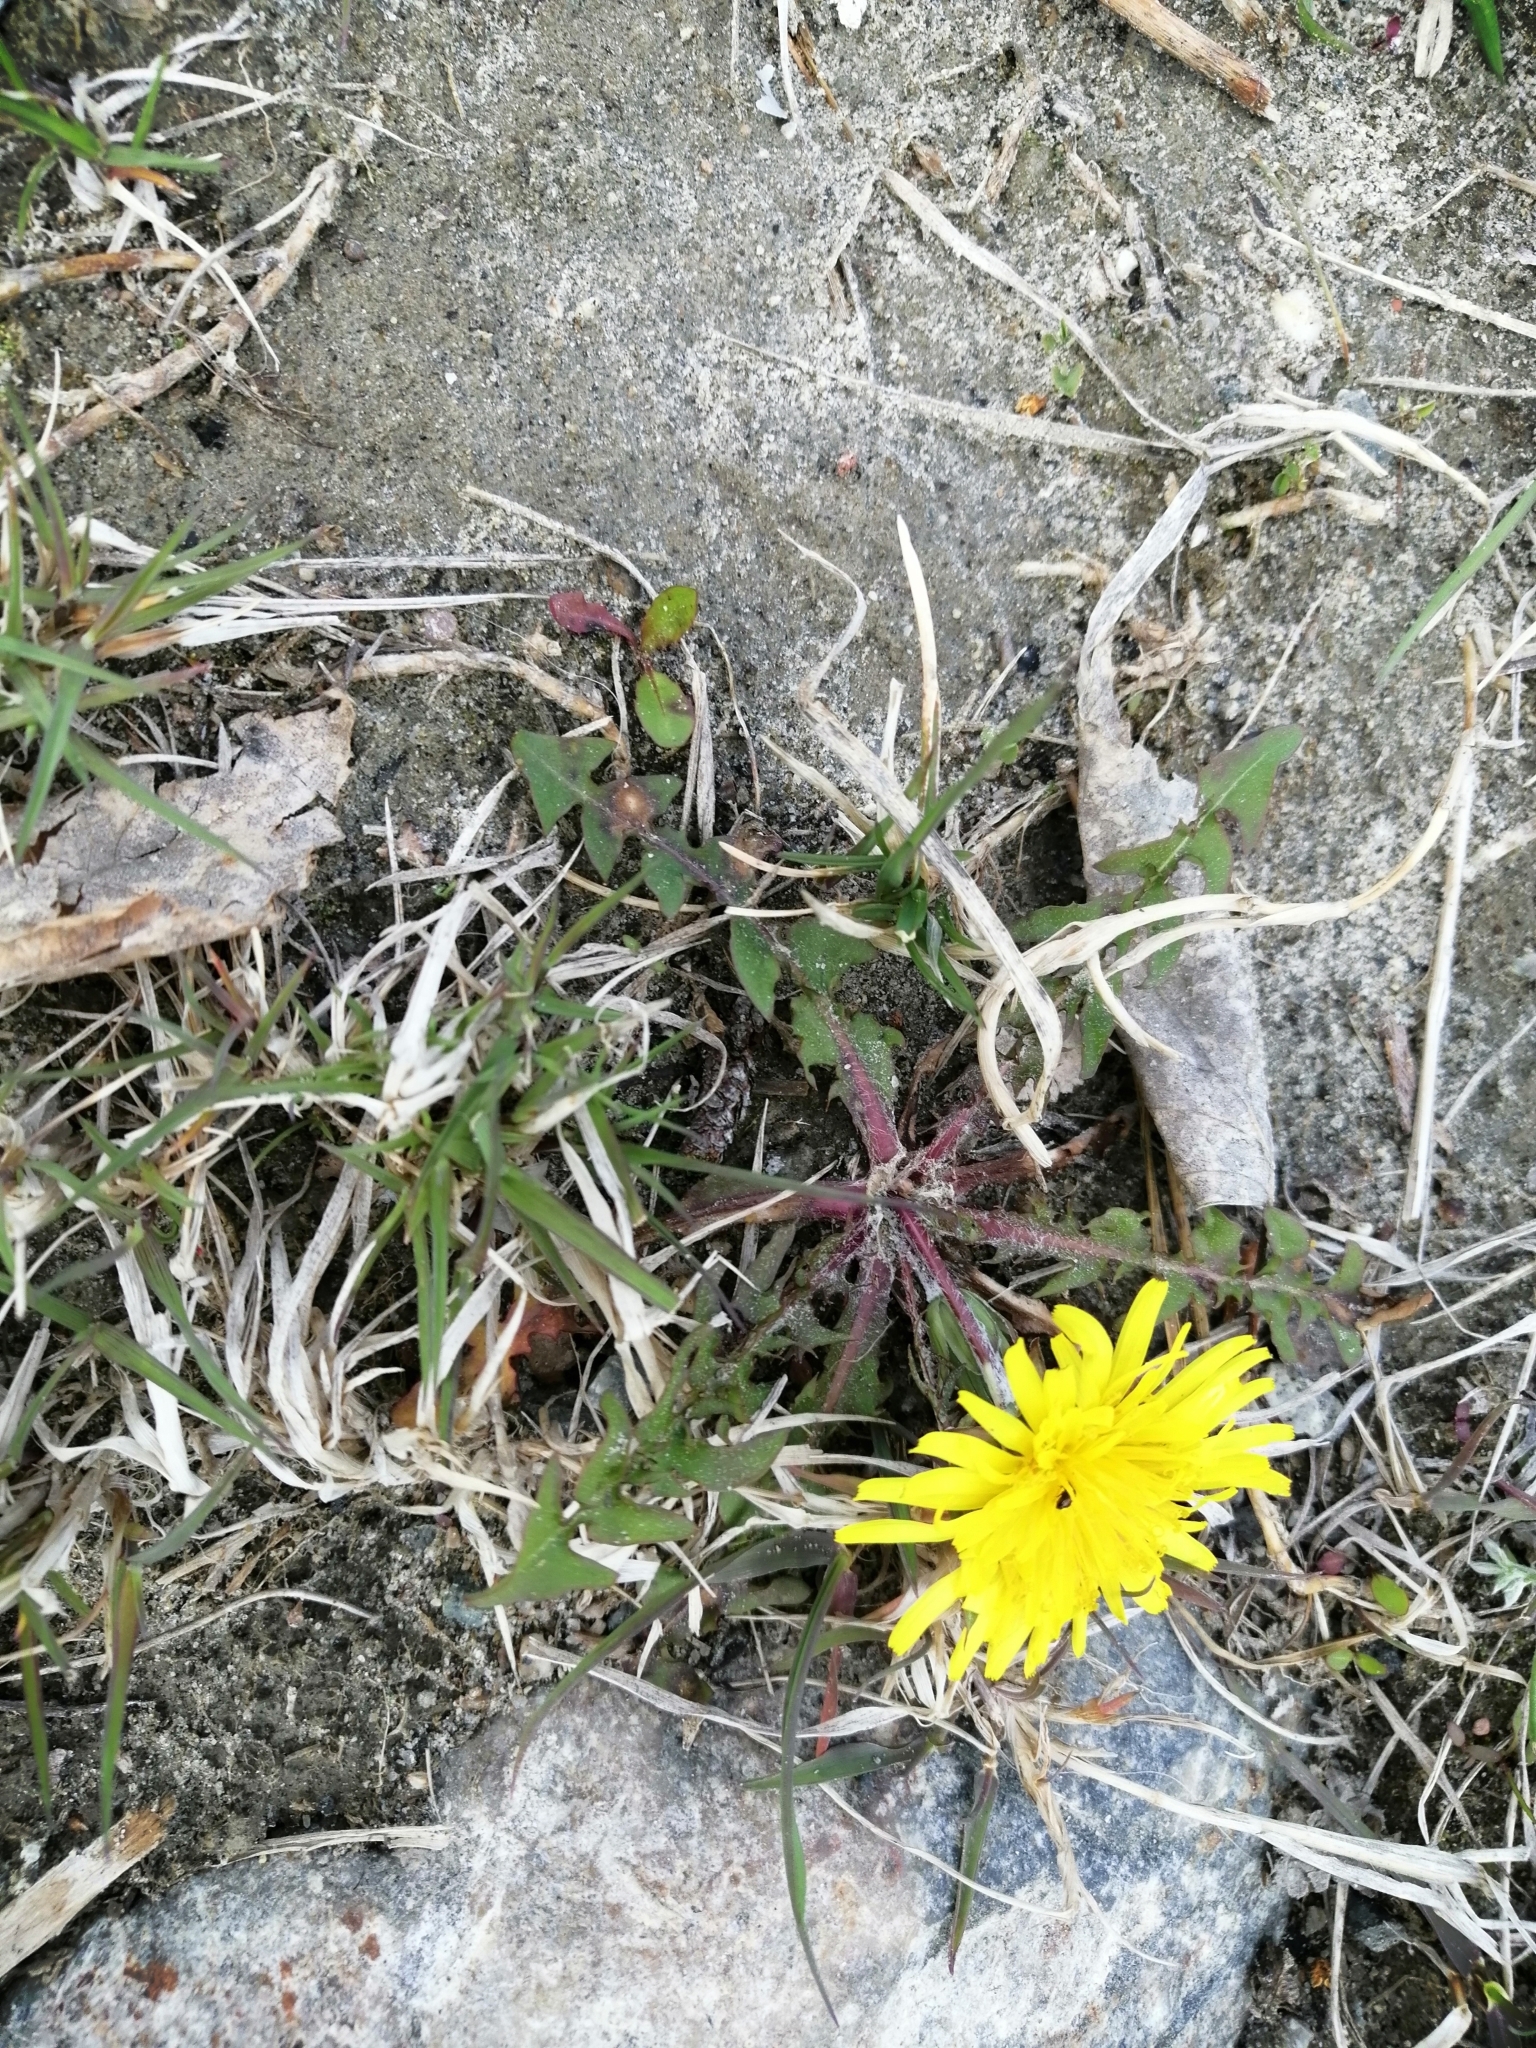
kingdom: Plantae
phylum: Tracheophyta
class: Magnoliopsida
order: Asterales
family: Asteraceae
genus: Taraxacum
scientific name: Taraxacum officinale
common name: Common dandelion
